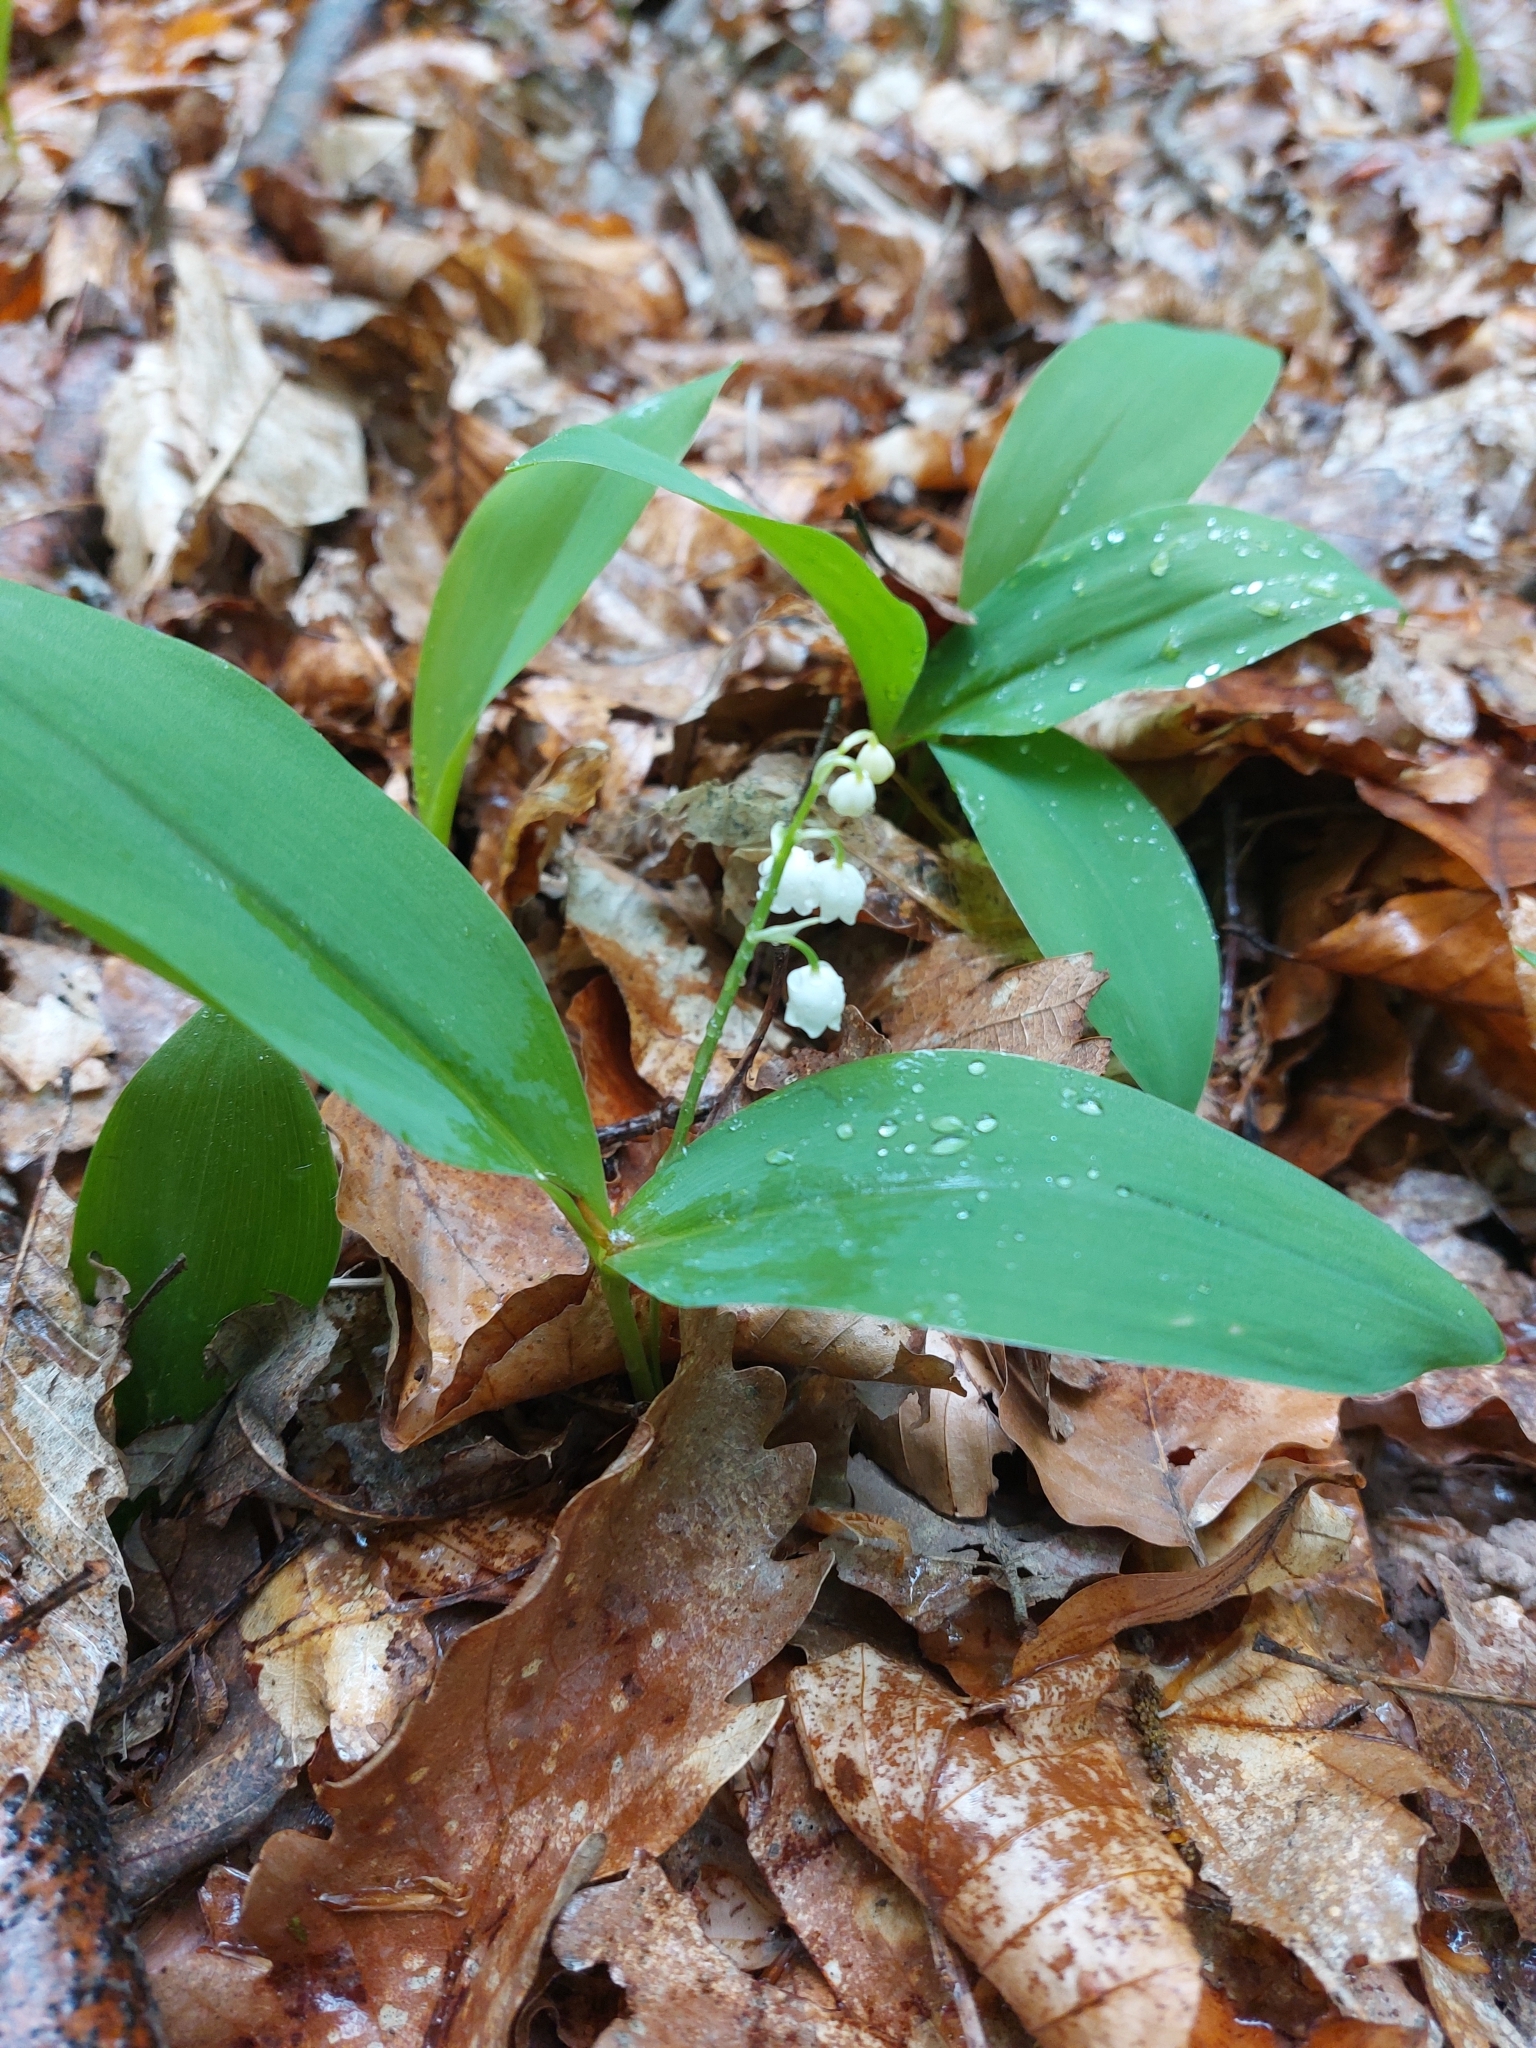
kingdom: Plantae
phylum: Tracheophyta
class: Liliopsida
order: Asparagales
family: Asparagaceae
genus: Convallaria
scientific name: Convallaria majalis
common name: Lily-of-the-valley
